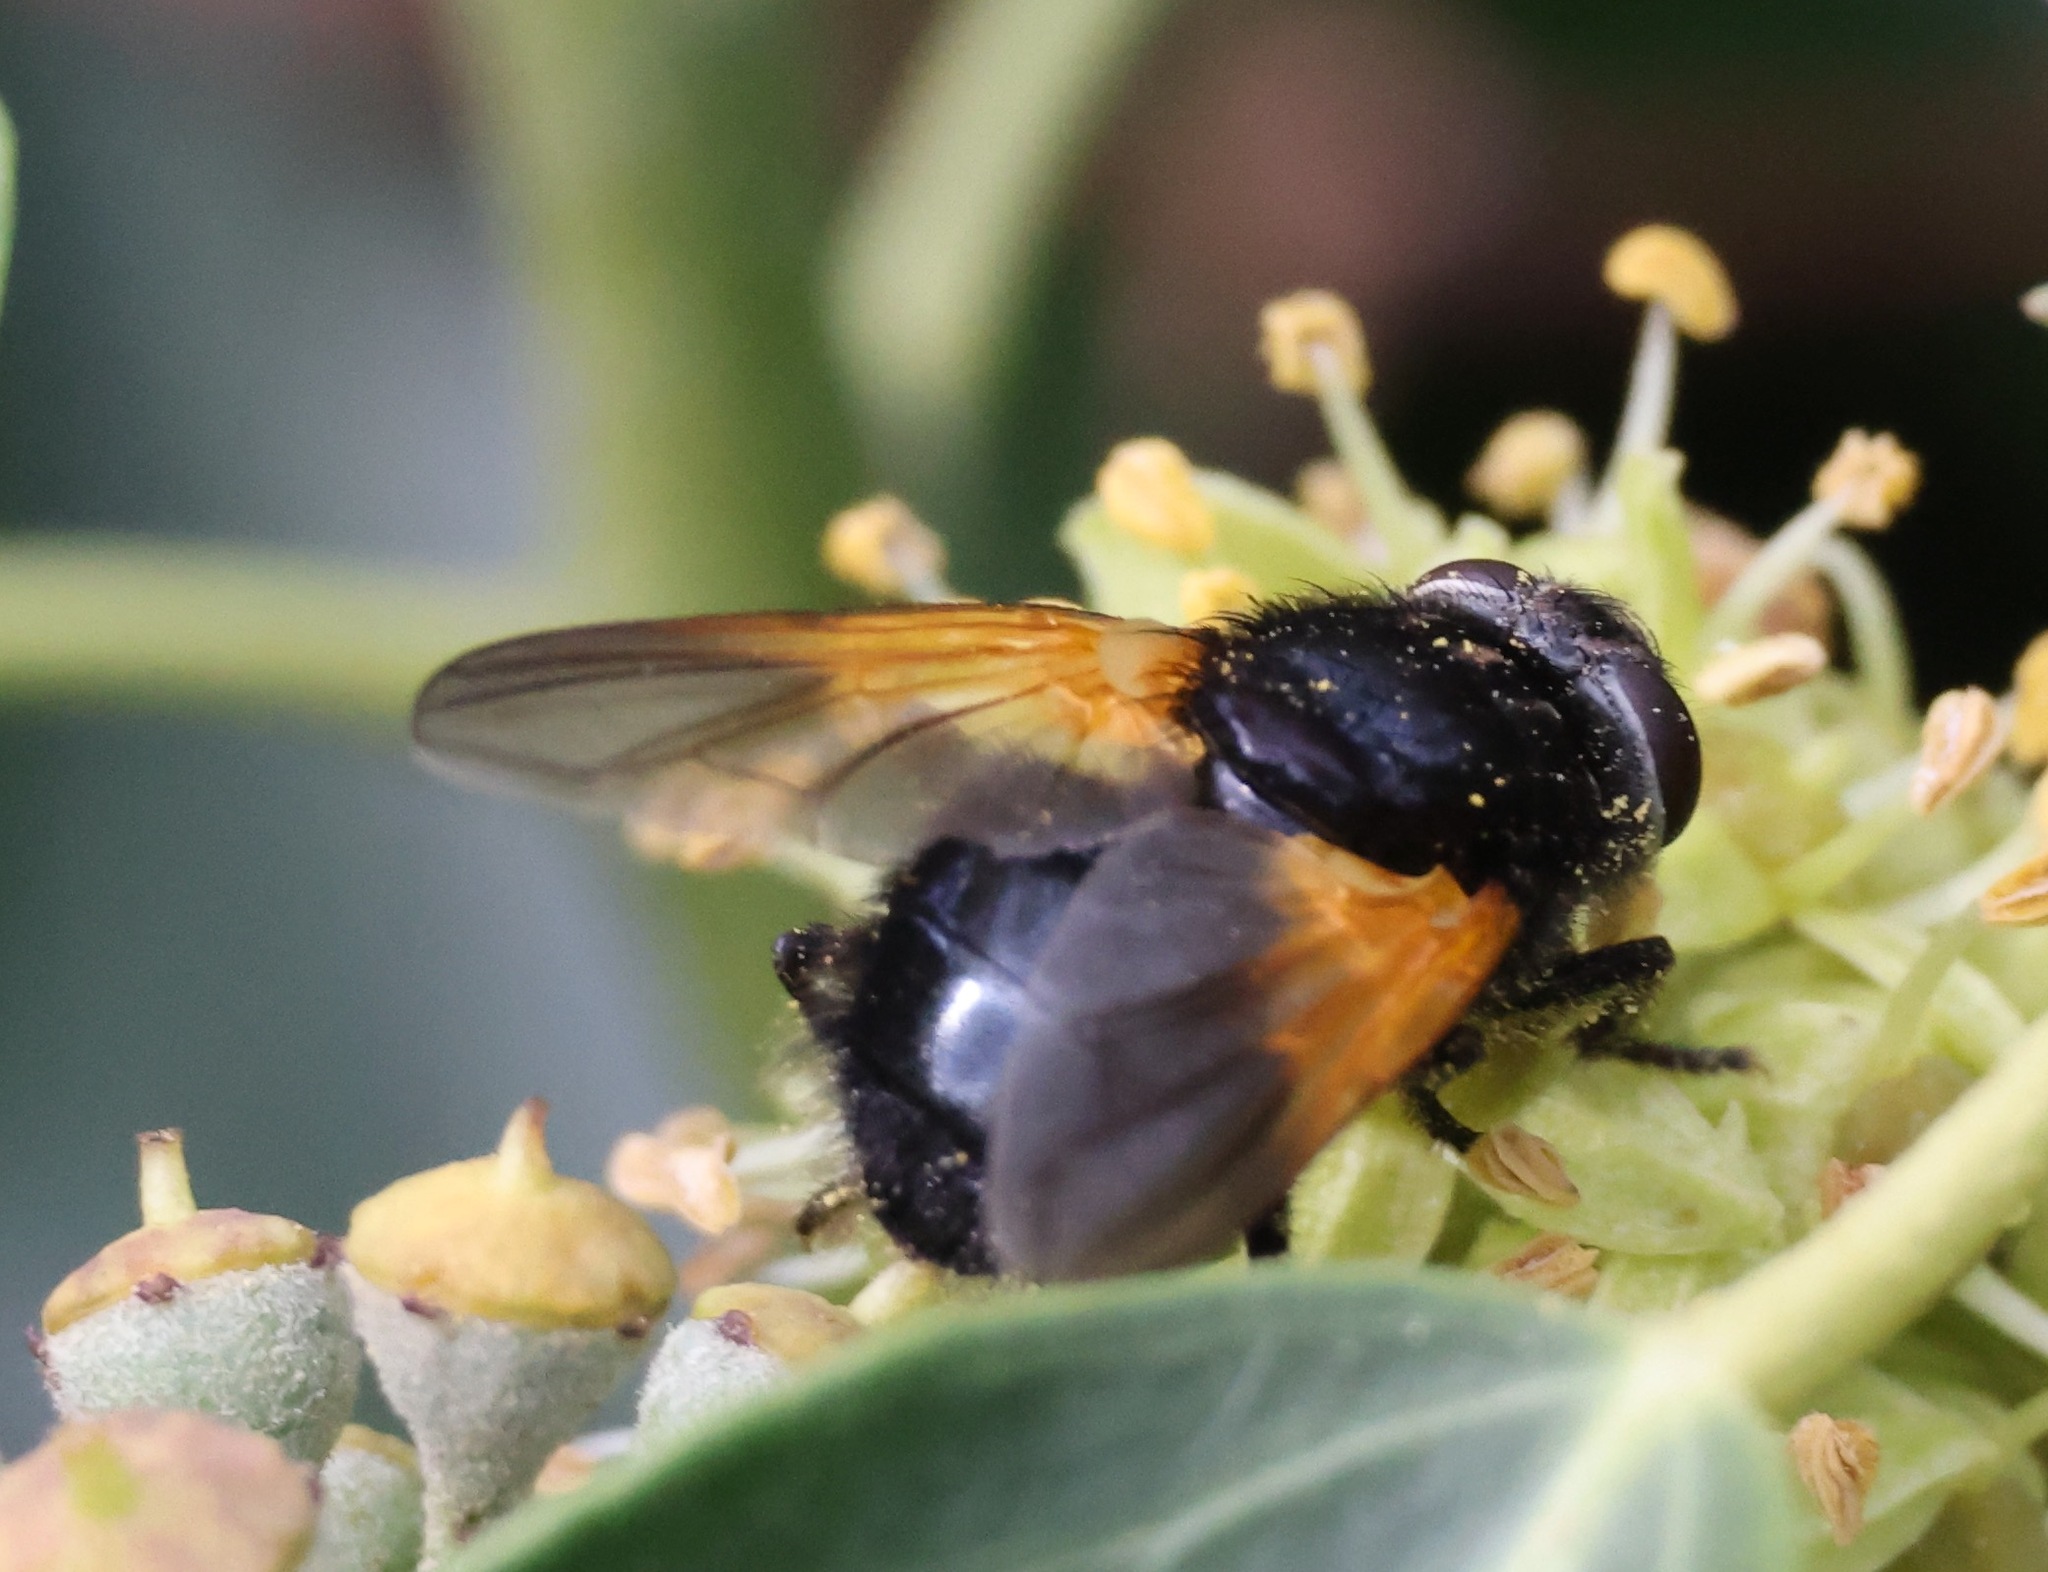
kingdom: Animalia
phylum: Arthropoda
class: Insecta
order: Diptera
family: Muscidae
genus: Mesembrina
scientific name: Mesembrina meridiana
